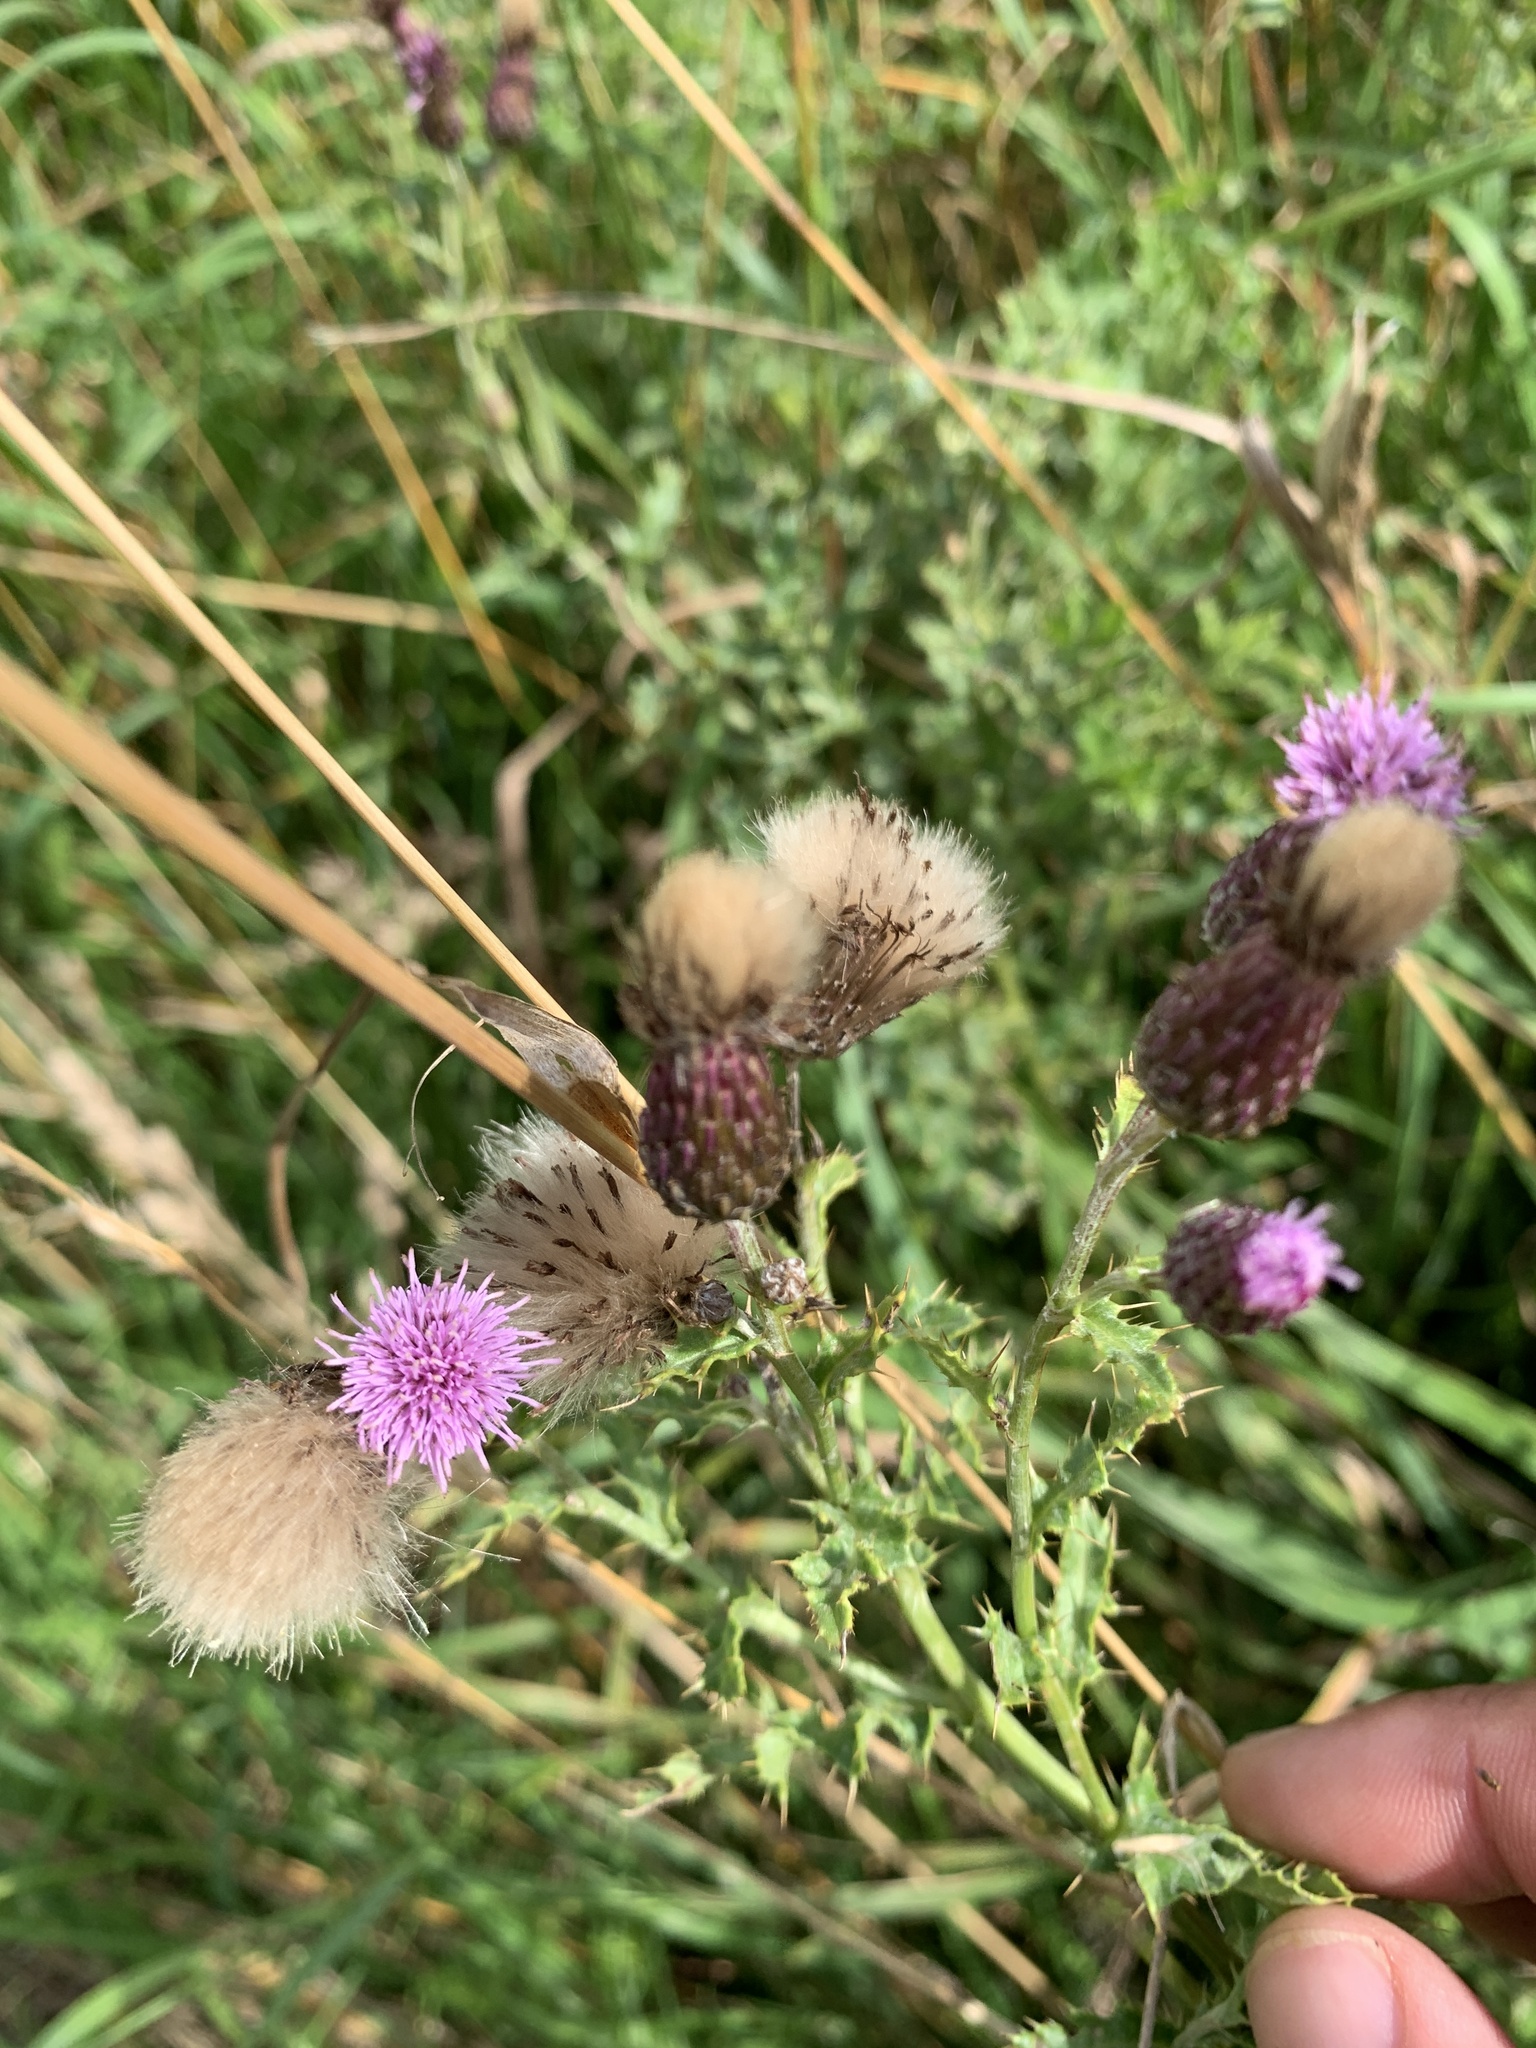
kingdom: Plantae
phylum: Tracheophyta
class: Magnoliopsida
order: Asterales
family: Asteraceae
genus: Cirsium
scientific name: Cirsium arvense
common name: Creeping thistle
